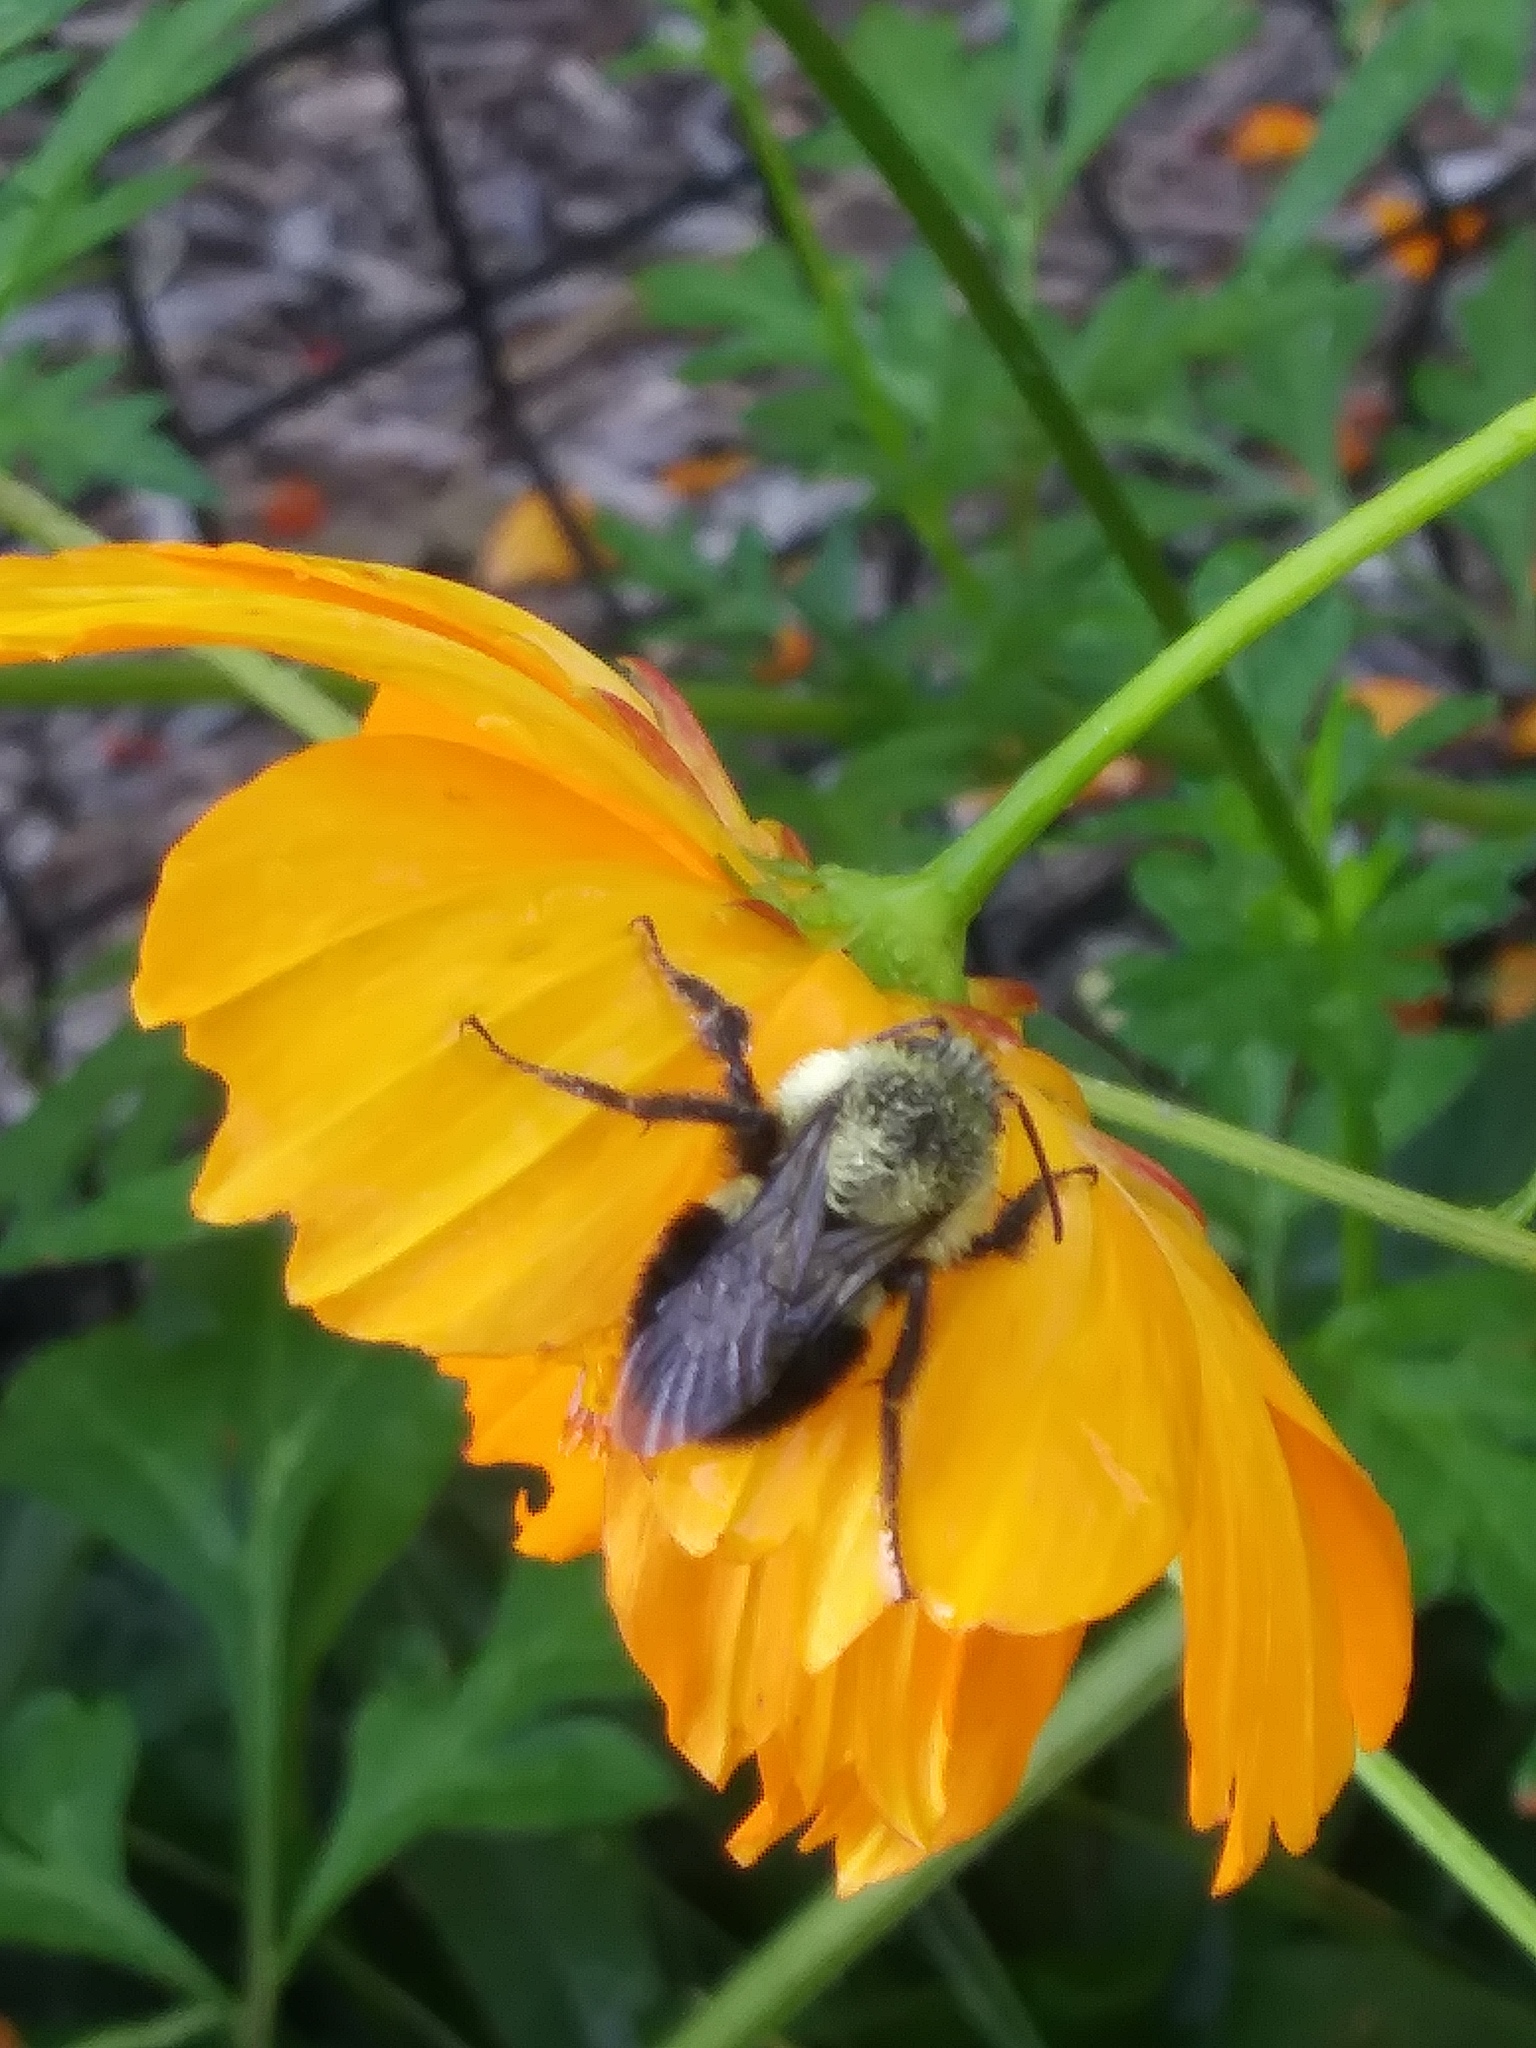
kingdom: Animalia
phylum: Arthropoda
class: Insecta
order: Hymenoptera
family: Apidae
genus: Bombus
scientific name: Bombus impatiens
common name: Common eastern bumble bee
